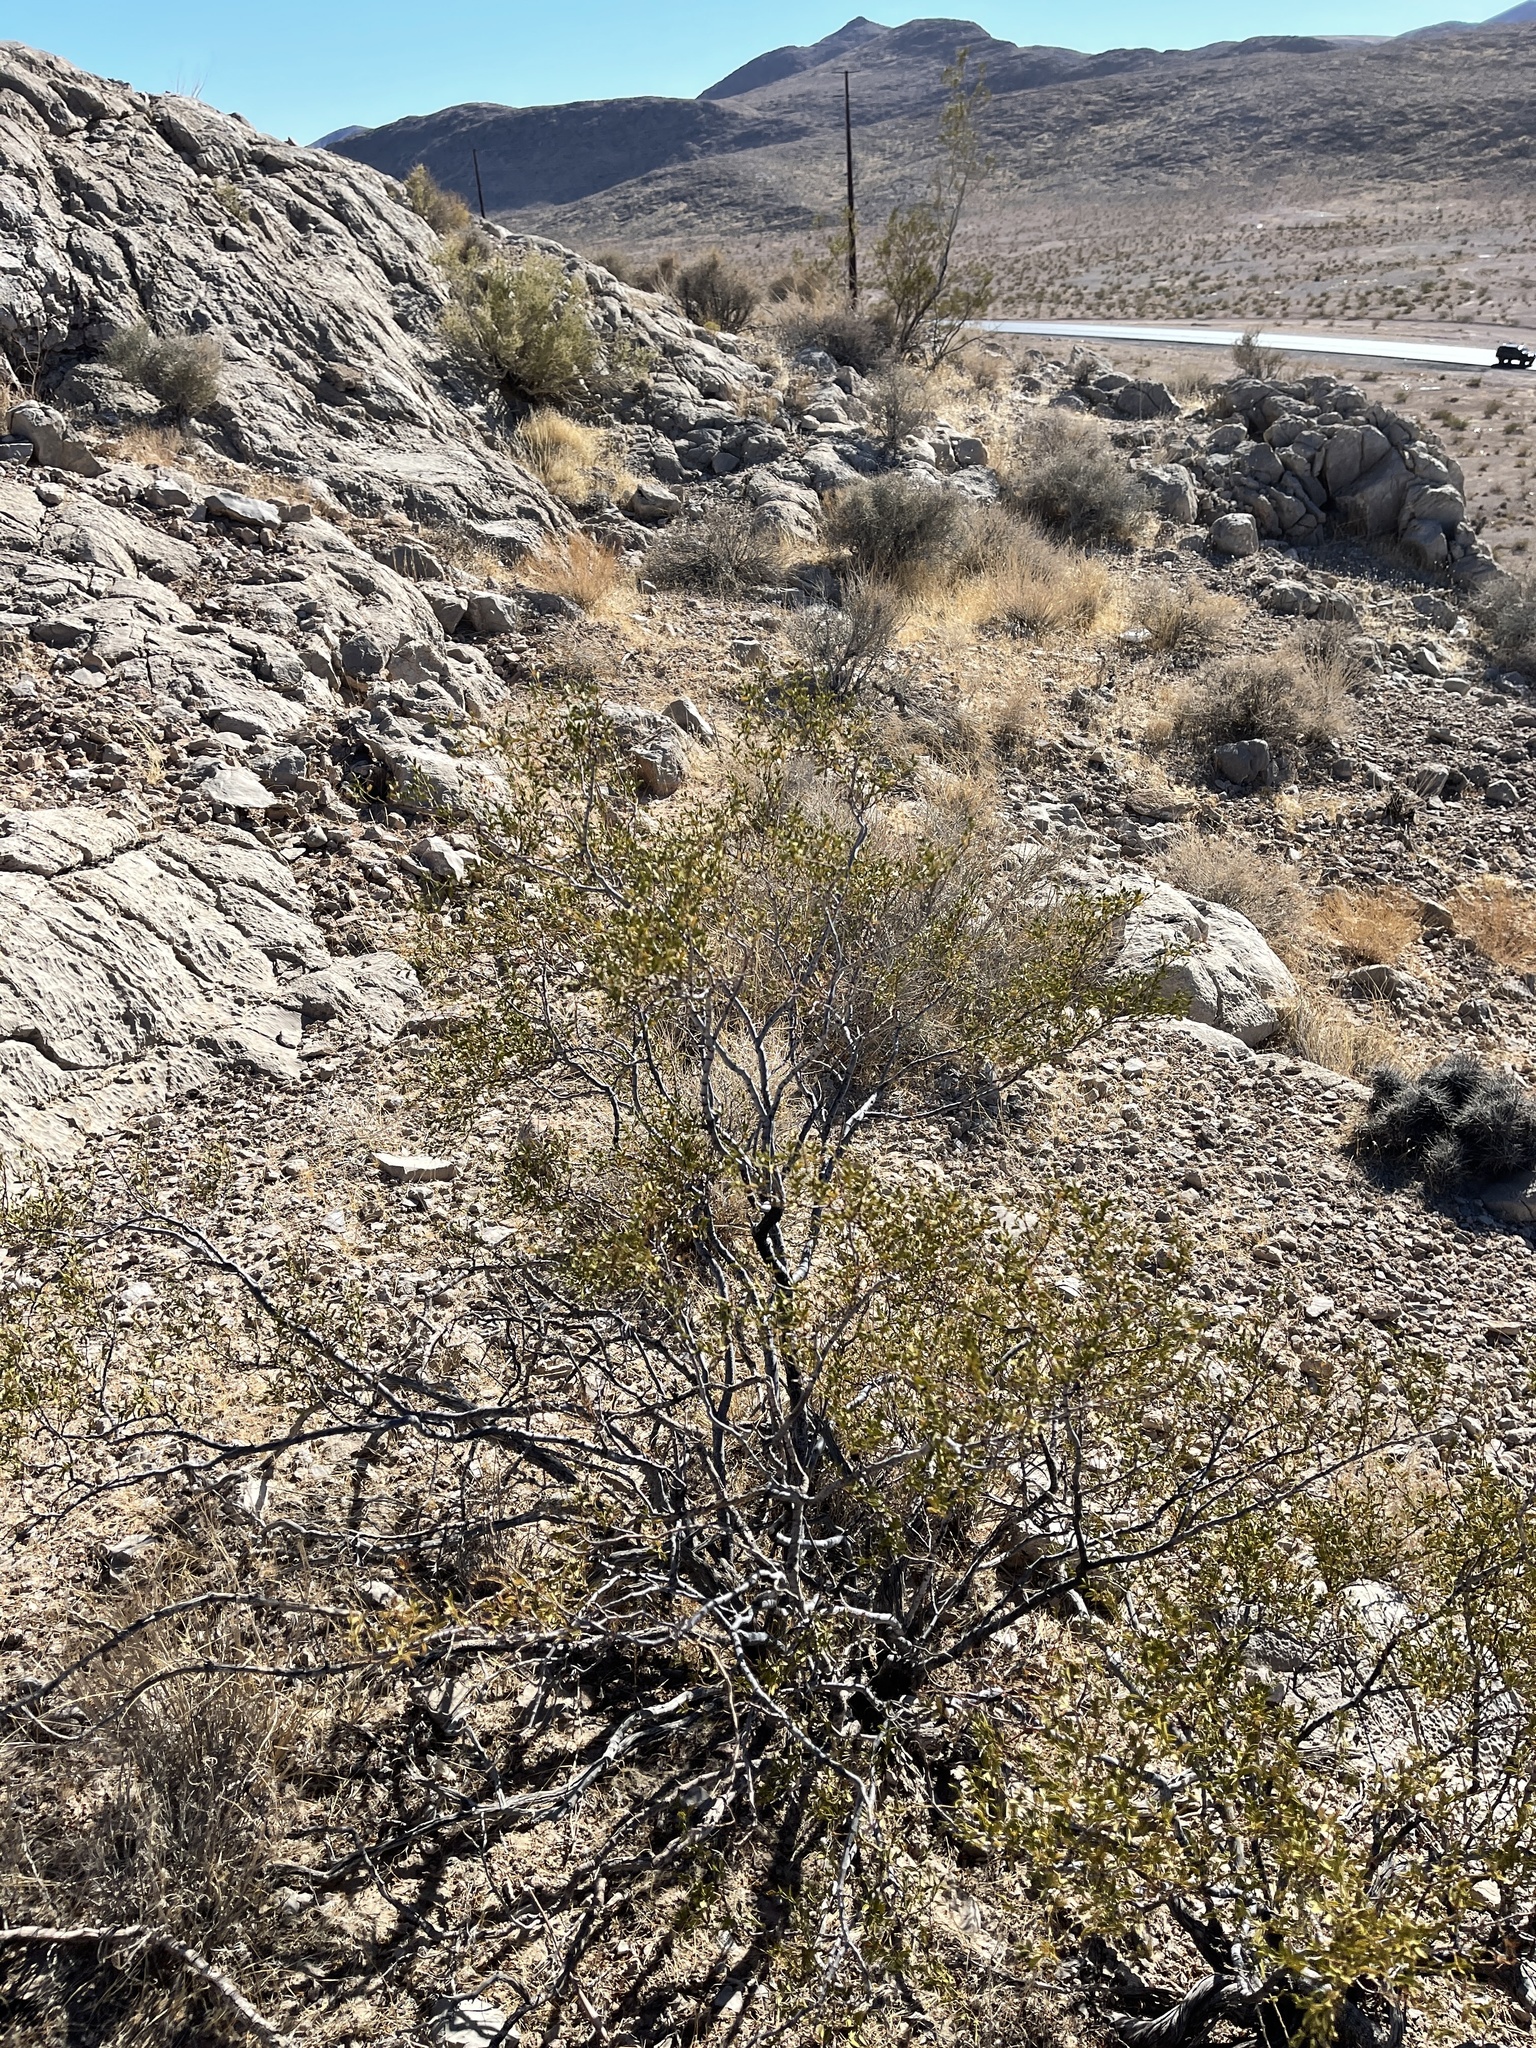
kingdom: Plantae
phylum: Tracheophyta
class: Magnoliopsida
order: Zygophyllales
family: Zygophyllaceae
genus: Larrea
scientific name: Larrea tridentata
